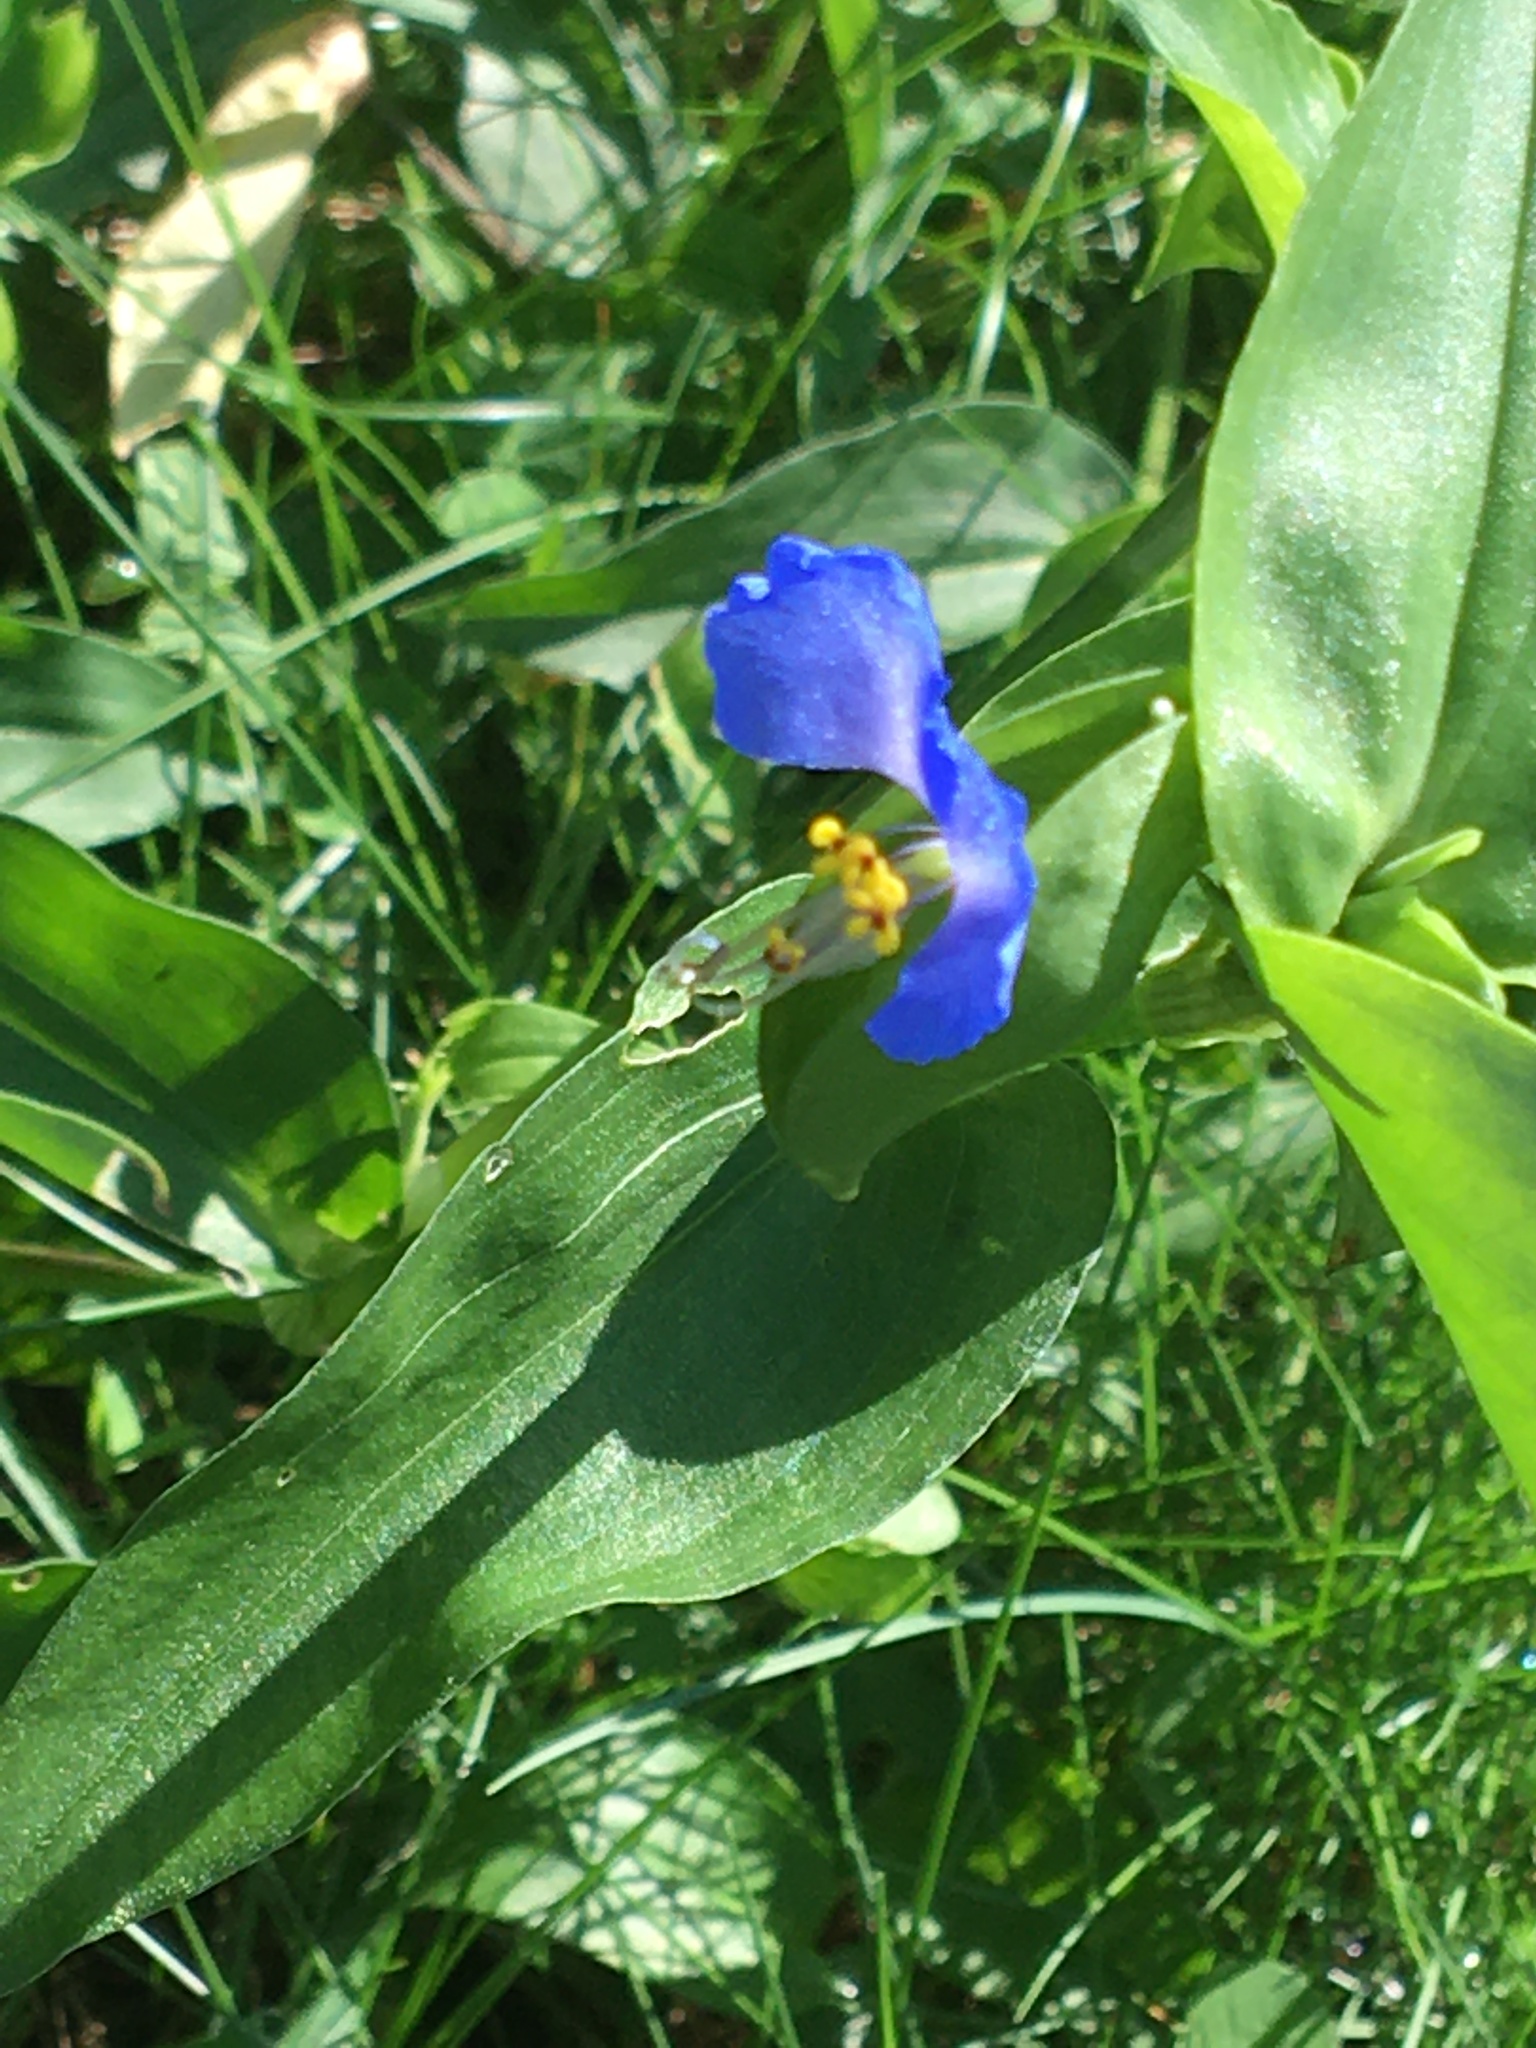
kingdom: Plantae
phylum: Tracheophyta
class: Liliopsida
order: Commelinales
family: Commelinaceae
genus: Commelina
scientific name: Commelina communis
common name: Asiatic dayflower
